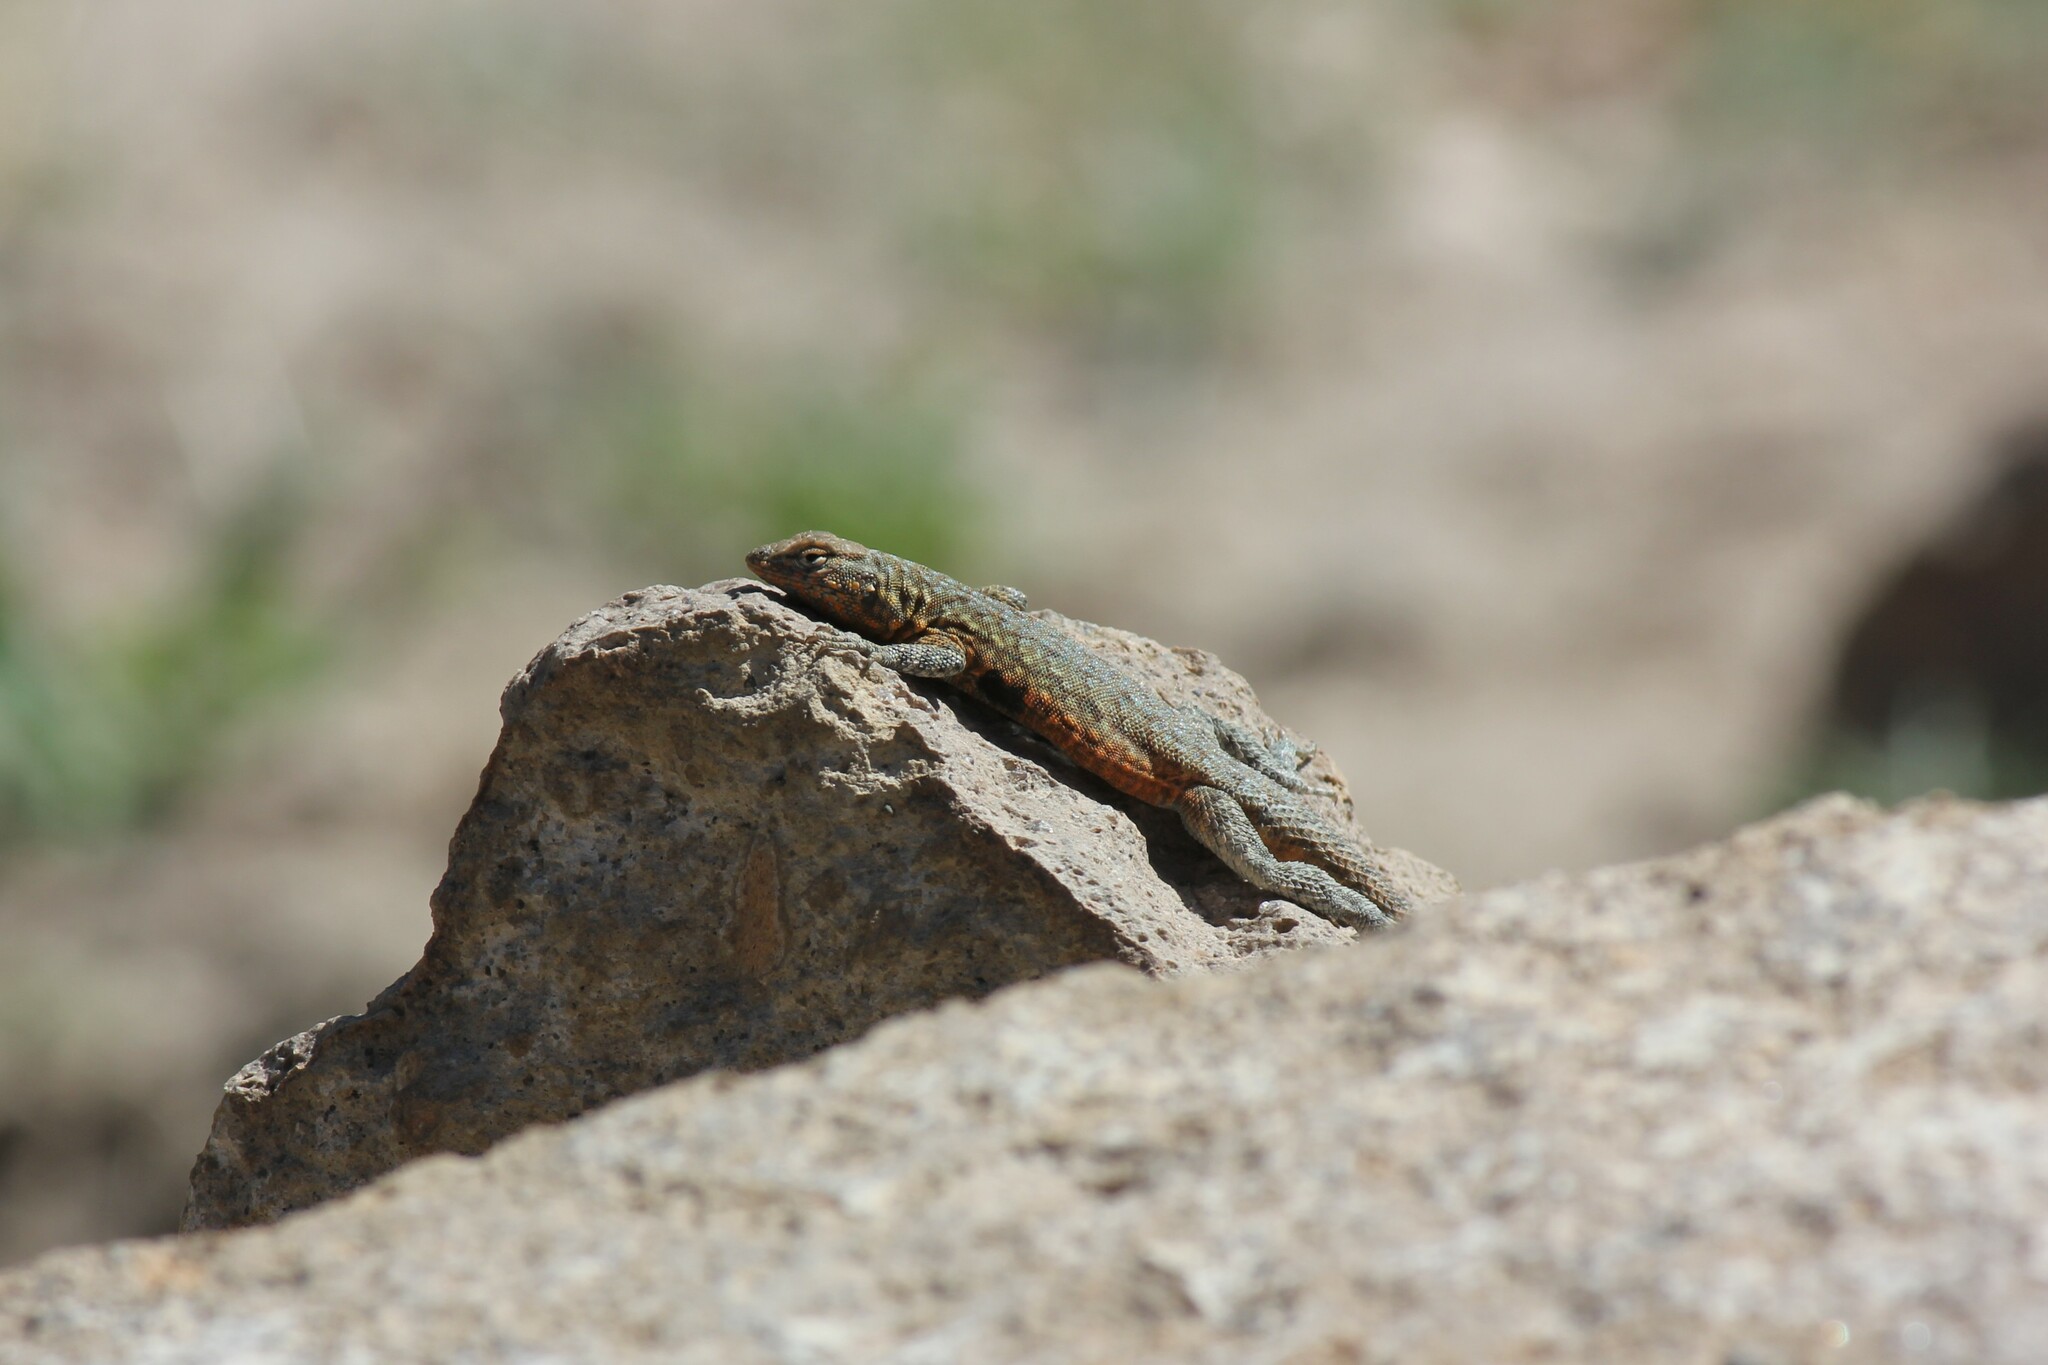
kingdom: Animalia
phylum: Chordata
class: Squamata
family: Phrynosomatidae
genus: Uta
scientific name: Uta stansburiana
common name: Side-blotched lizard
